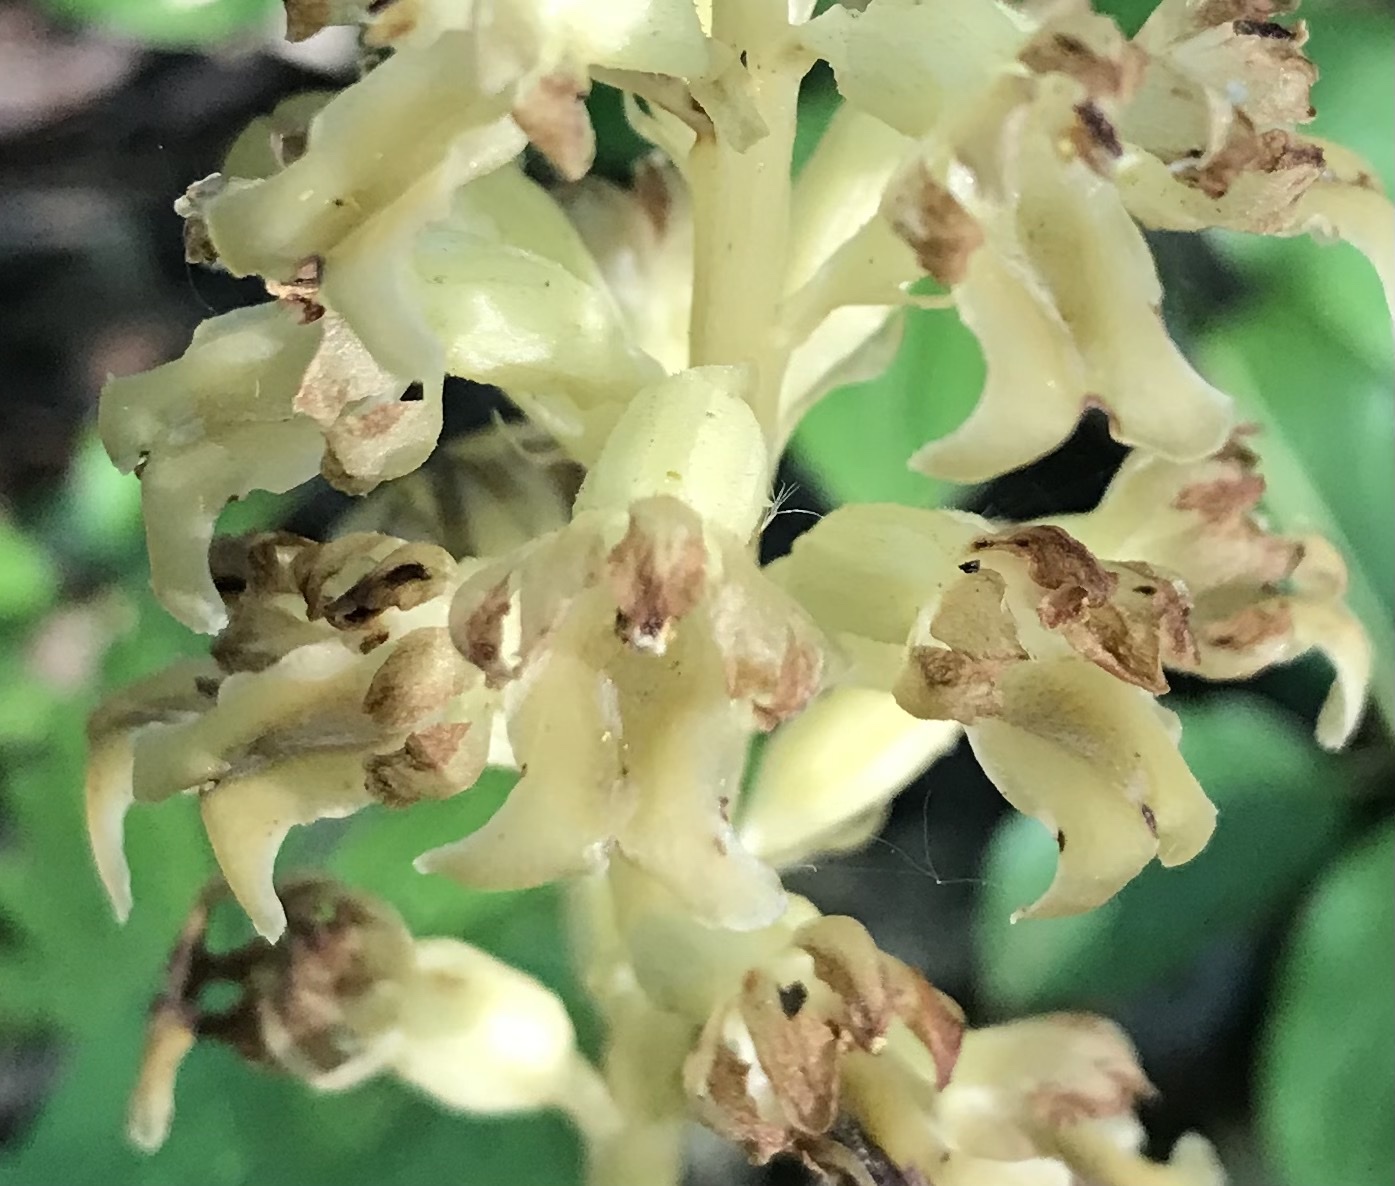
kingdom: Plantae
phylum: Tracheophyta
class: Liliopsida
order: Asparagales
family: Orchidaceae
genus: Neottia
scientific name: Neottia nidus-avis
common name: Bird's-nest orchid
